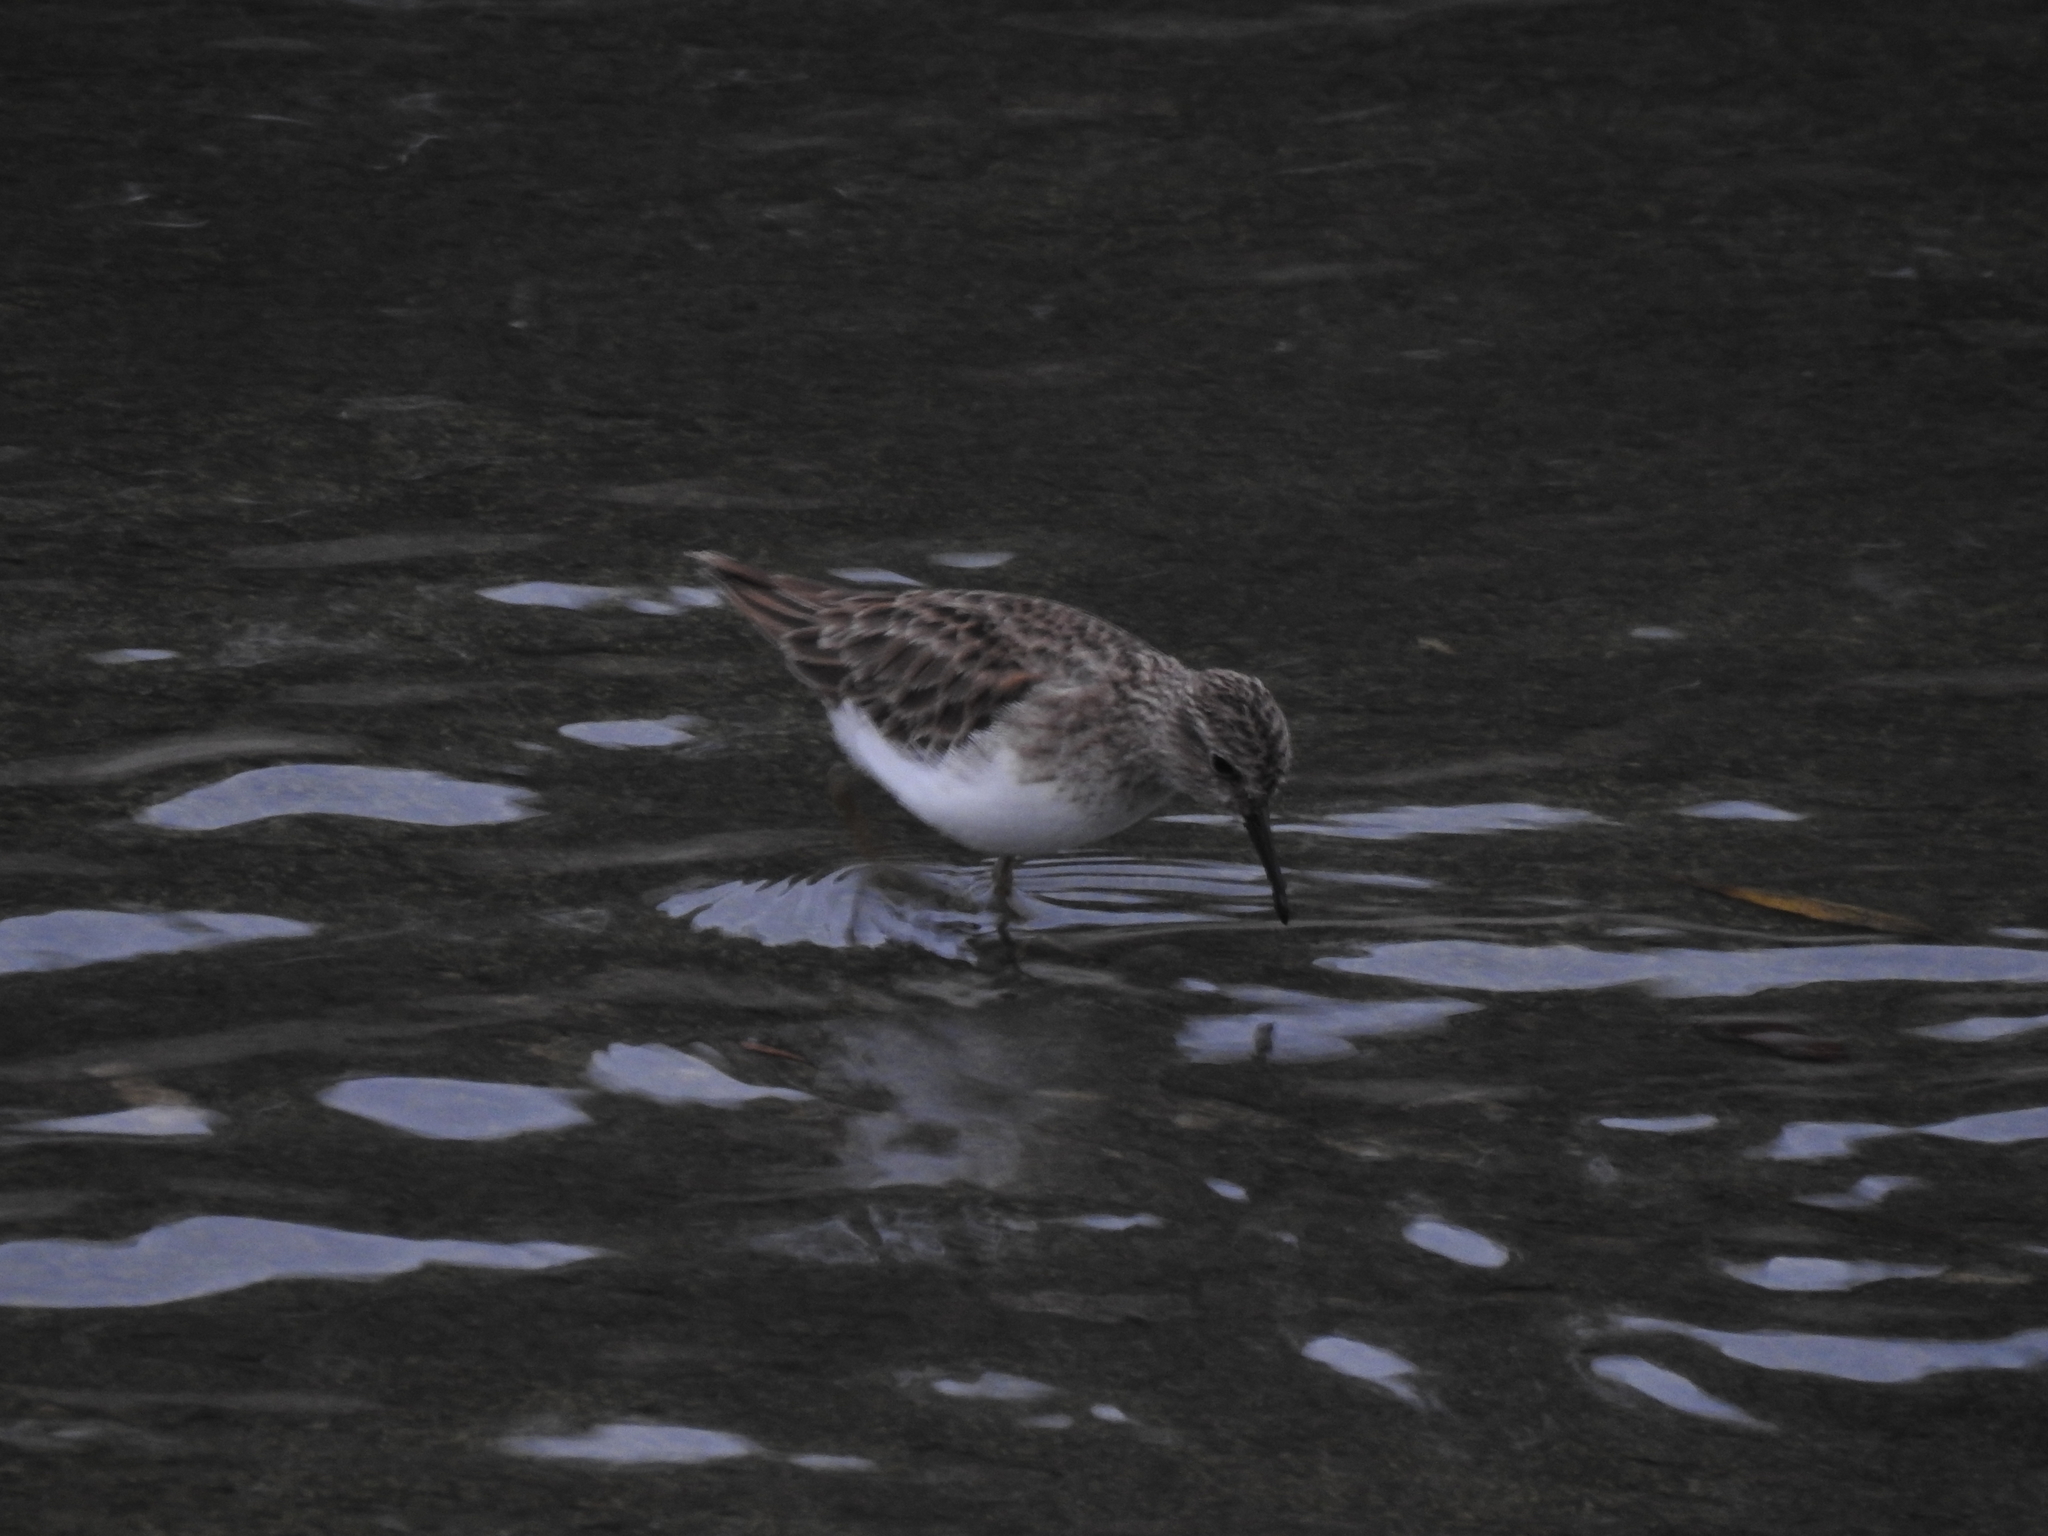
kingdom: Animalia
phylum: Chordata
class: Aves
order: Charadriiformes
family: Scolopacidae
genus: Calidris
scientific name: Calidris minutilla
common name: Least sandpiper
